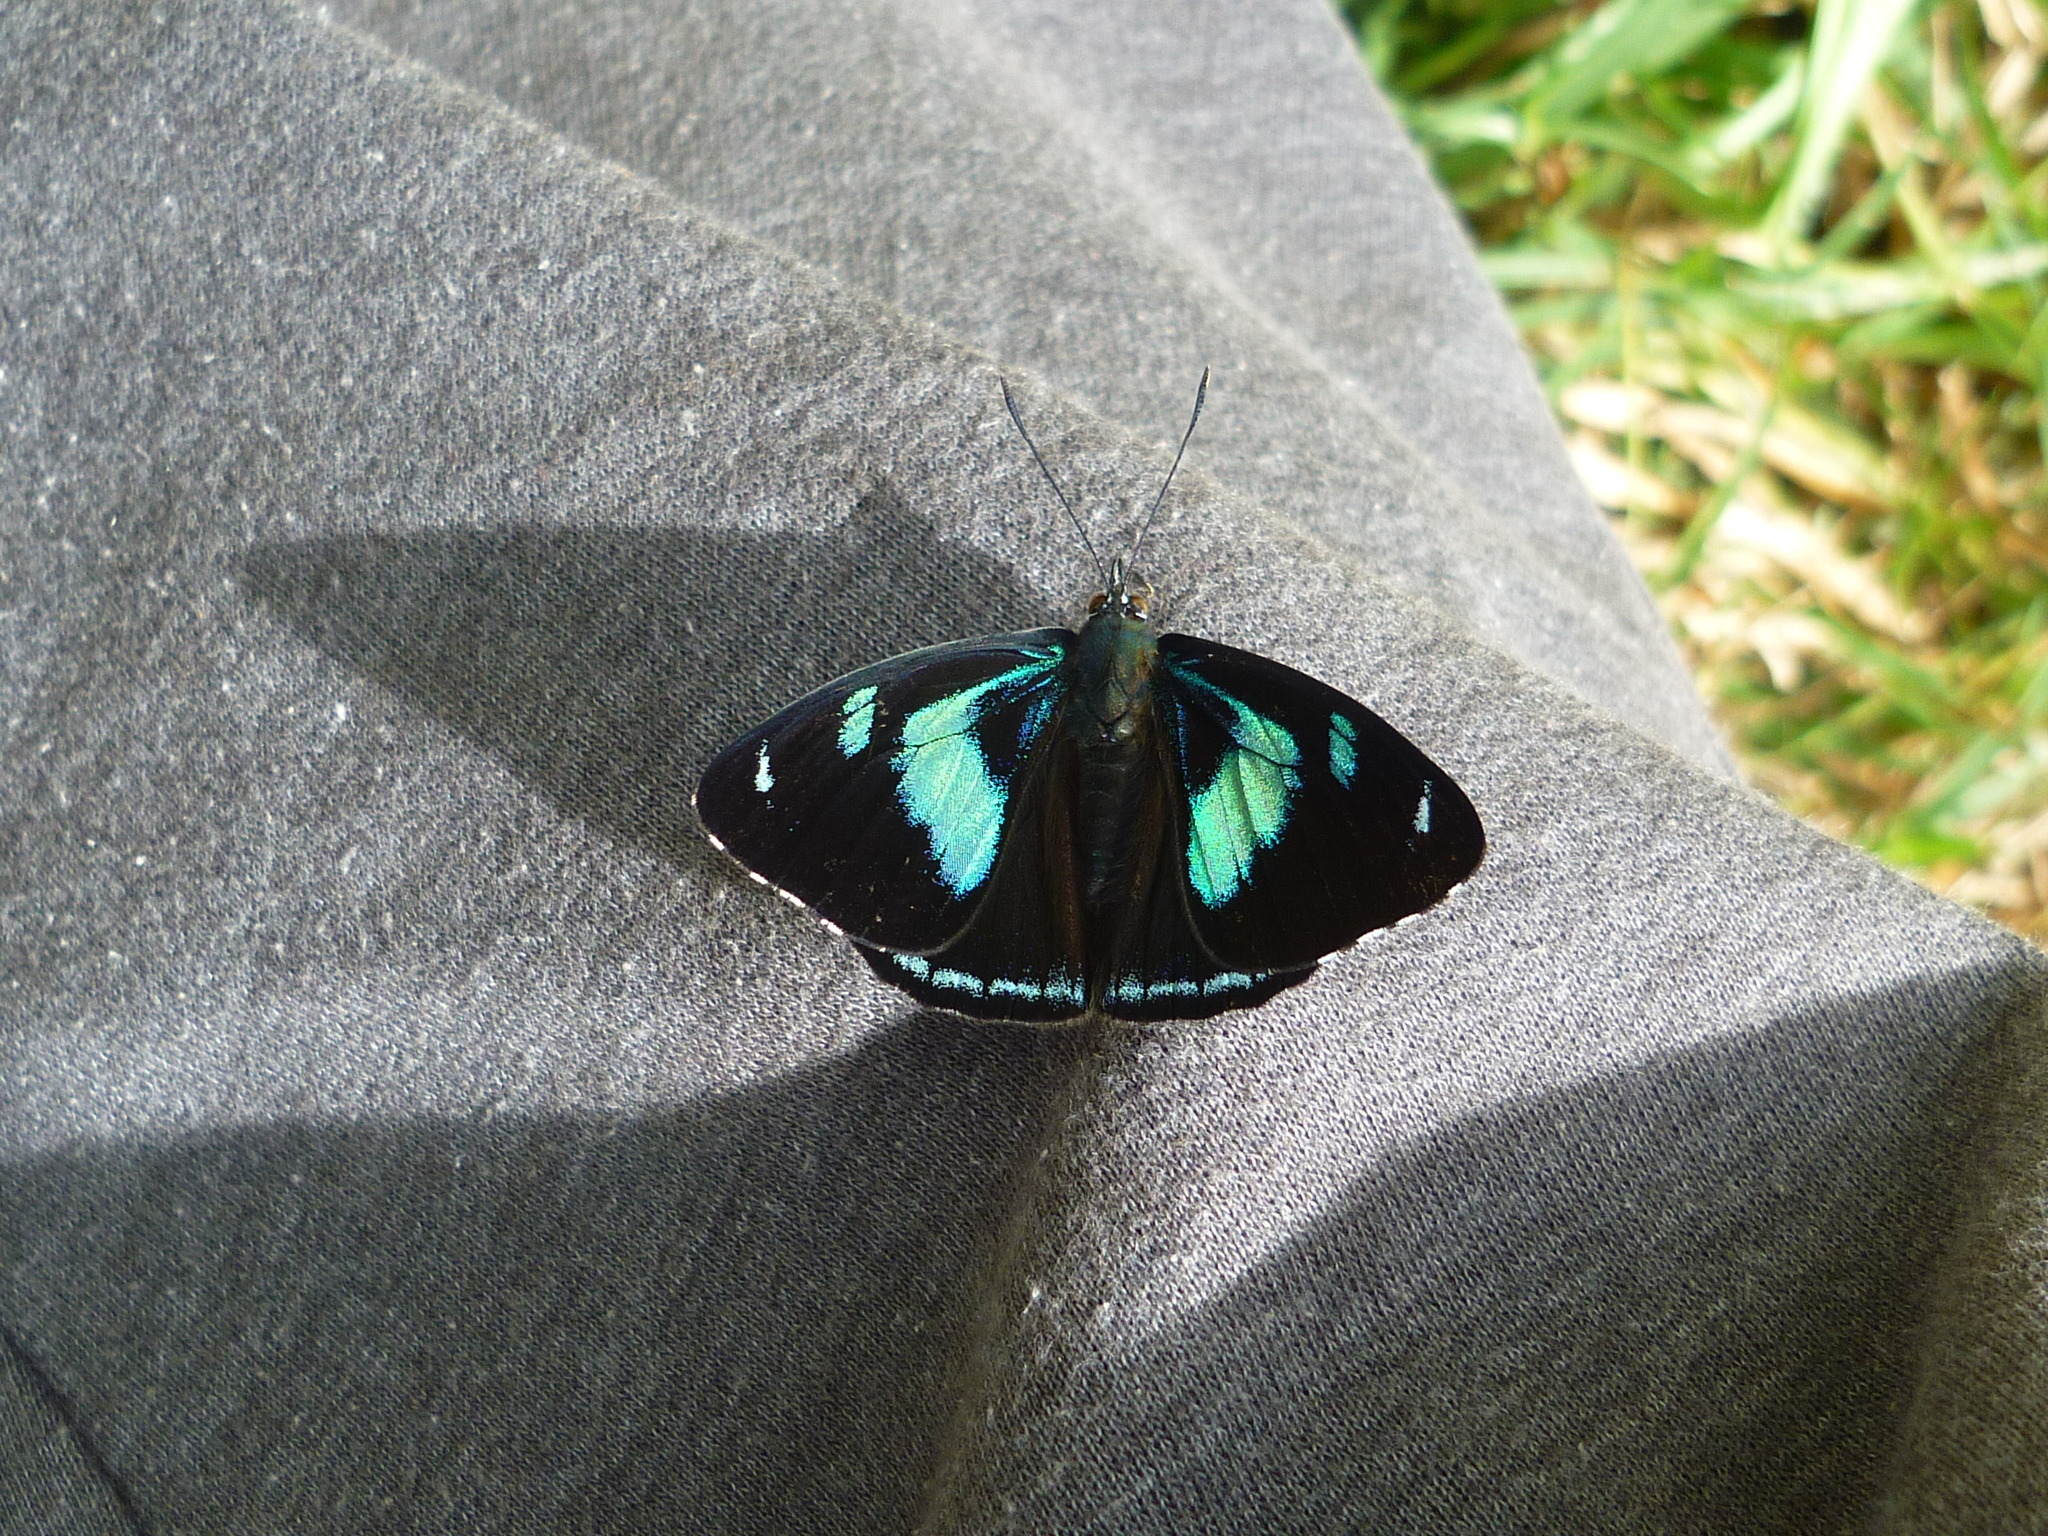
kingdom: Animalia
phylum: Arthropoda
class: Insecta
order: Lepidoptera
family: Nymphalidae
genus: Perisama
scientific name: Perisama humboldtii
